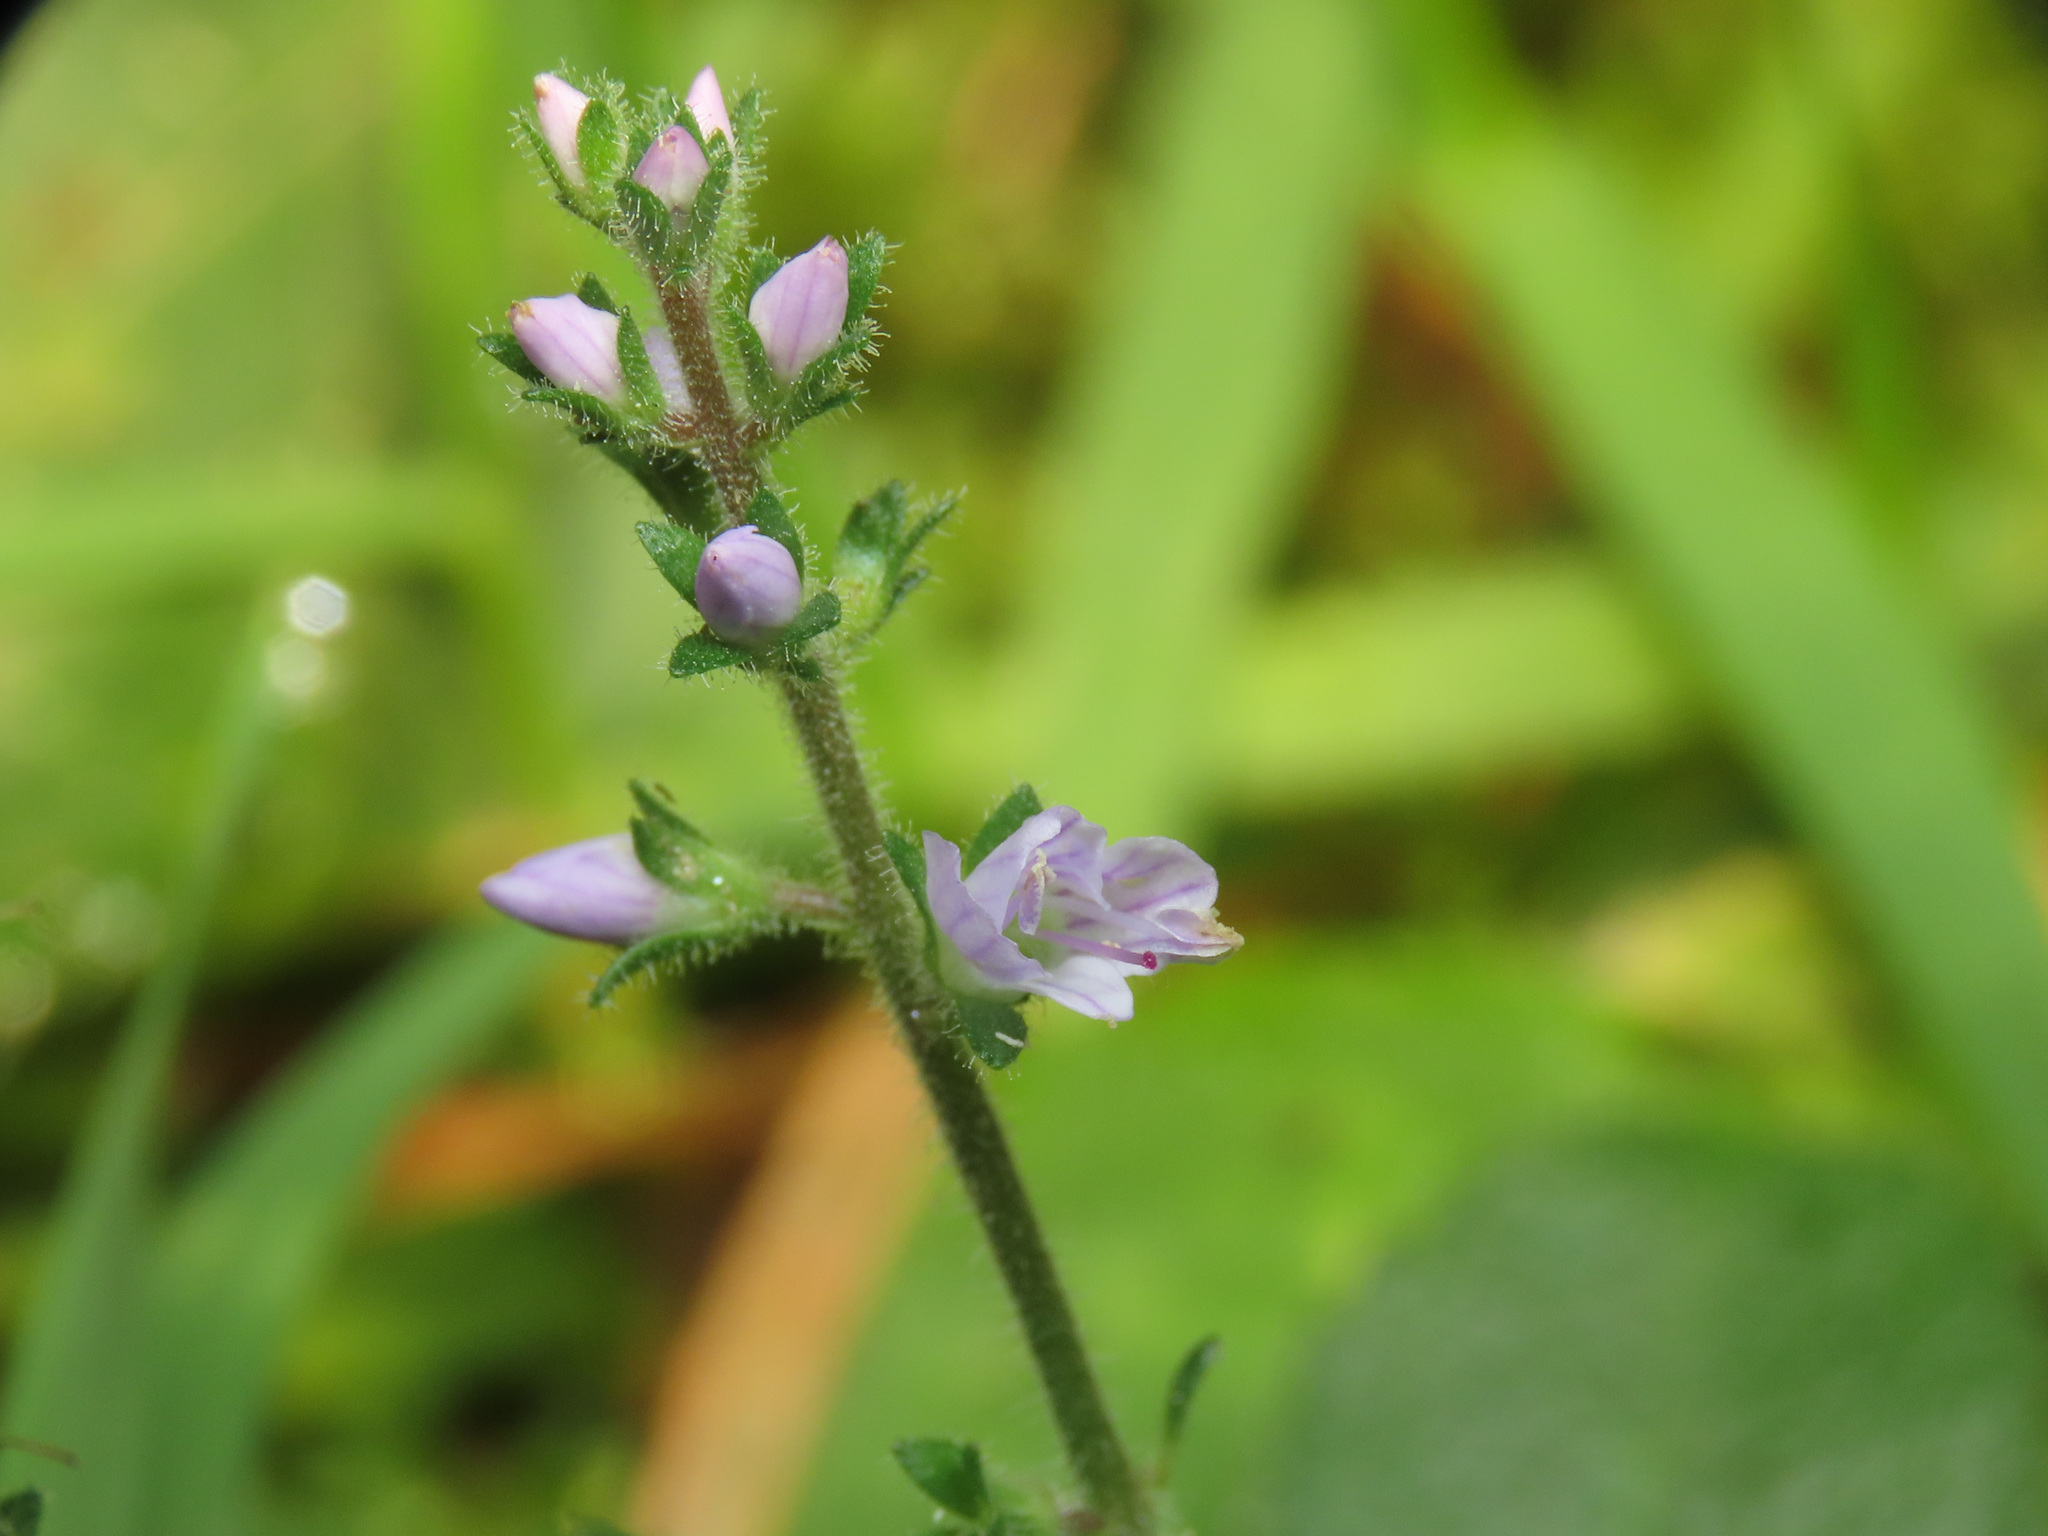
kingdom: Plantae
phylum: Tracheophyta
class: Magnoliopsida
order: Lamiales
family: Plantaginaceae
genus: Veronica
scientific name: Veronica officinalis
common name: Common speedwell
